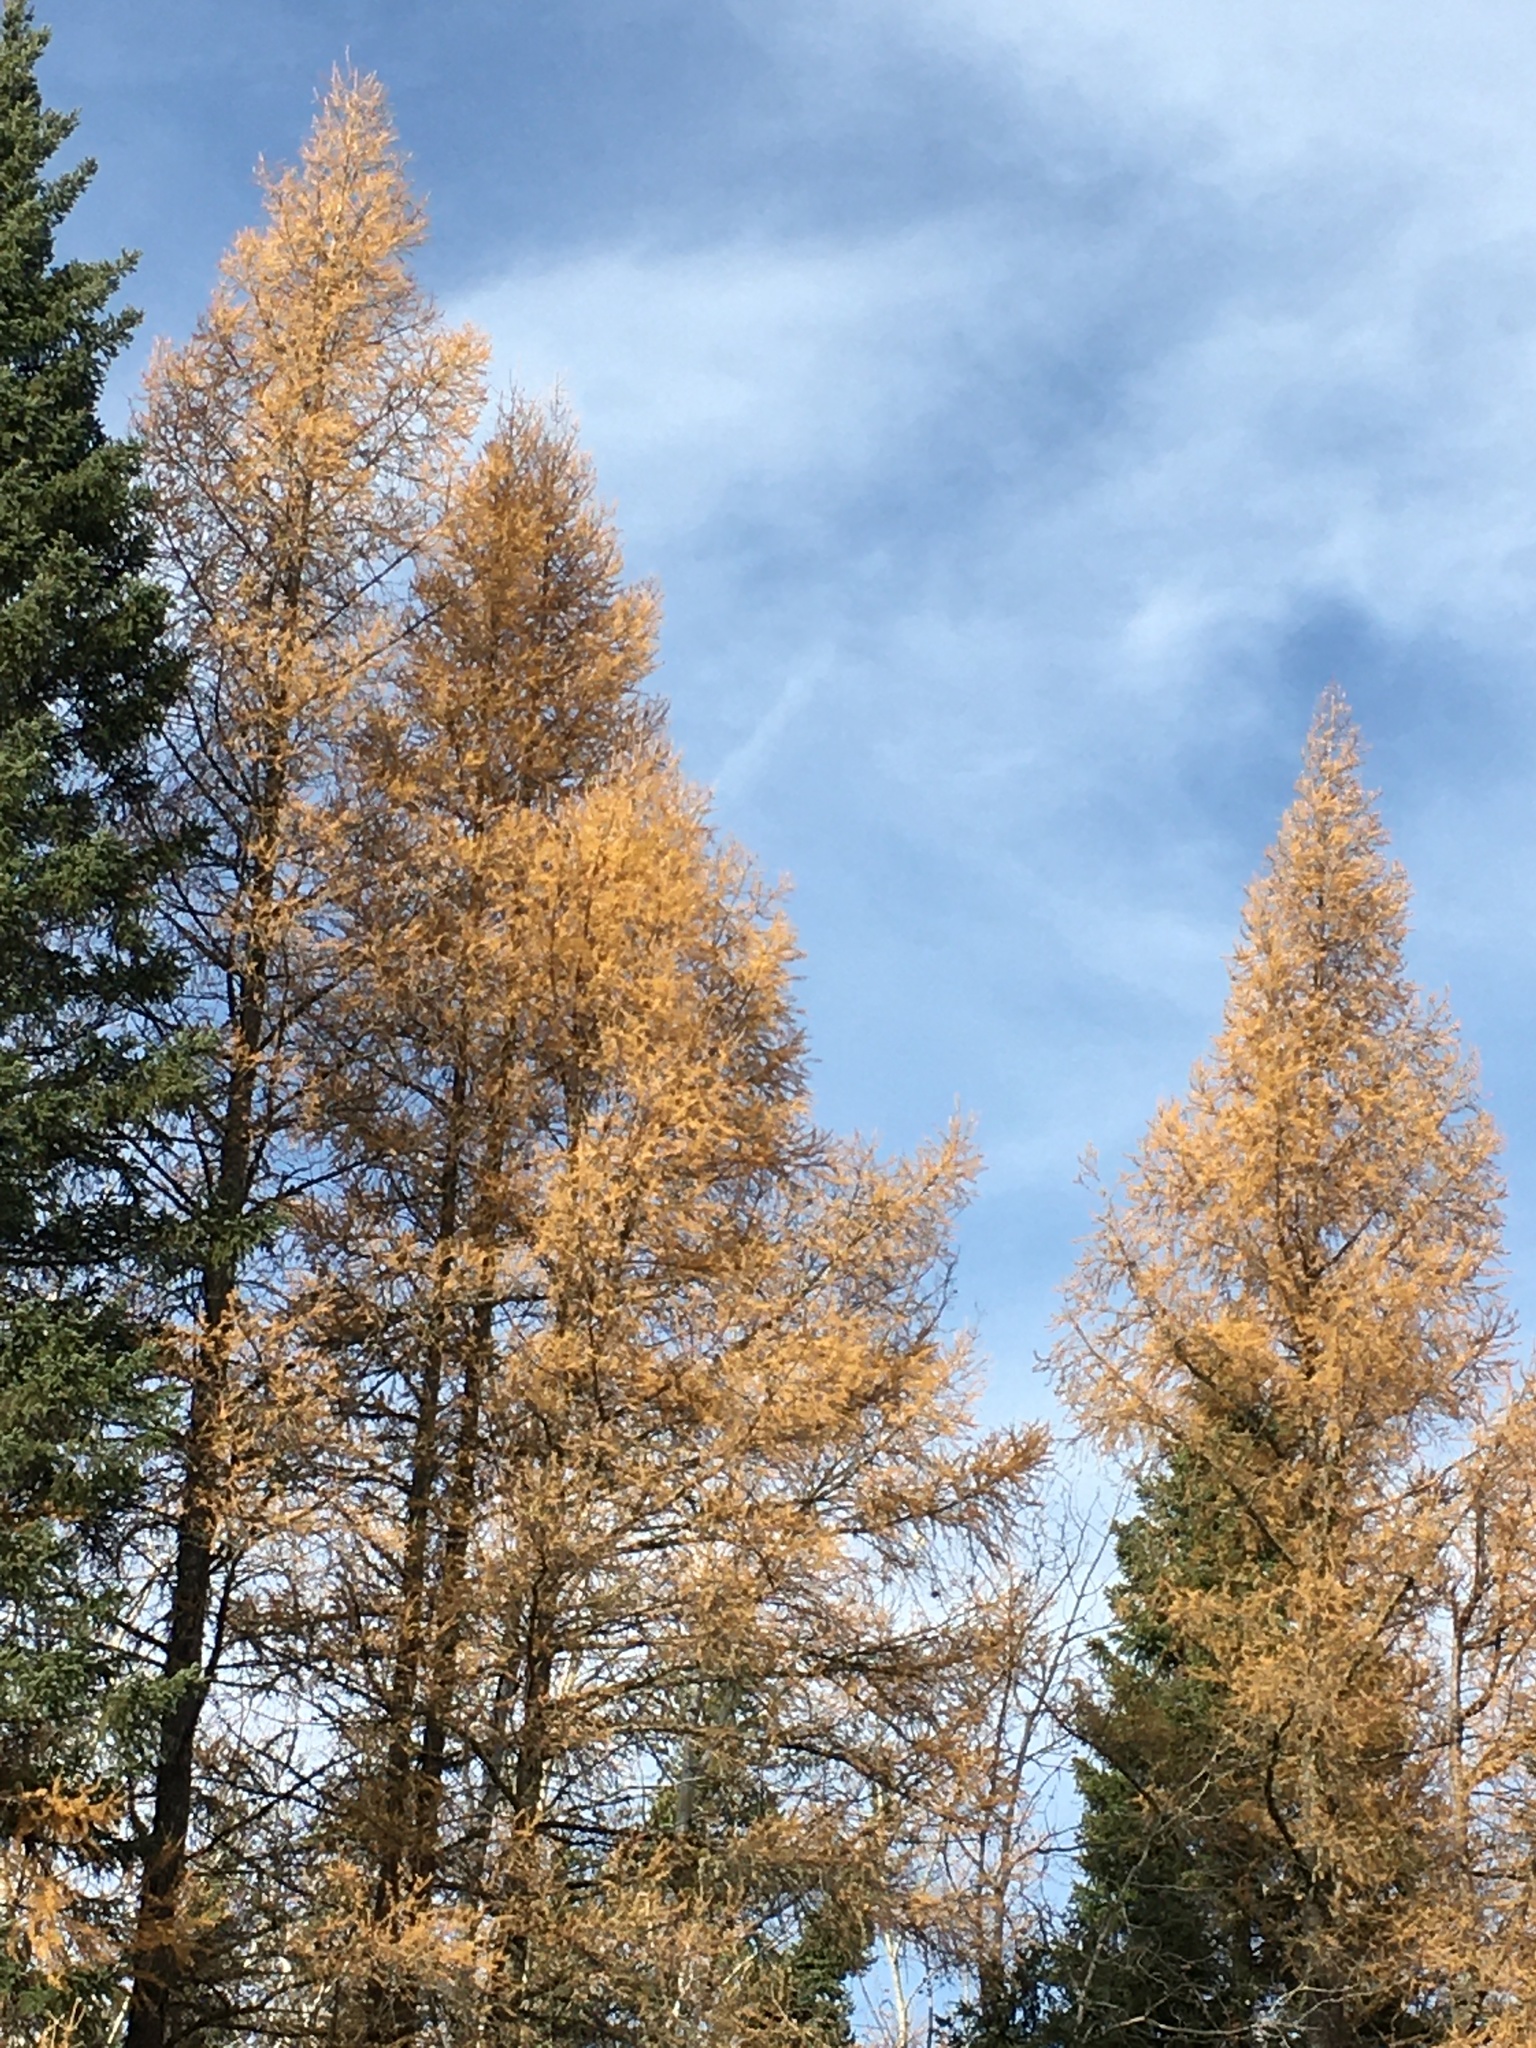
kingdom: Plantae
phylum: Tracheophyta
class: Pinopsida
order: Pinales
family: Pinaceae
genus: Larix
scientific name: Larix laricina
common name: American larch
